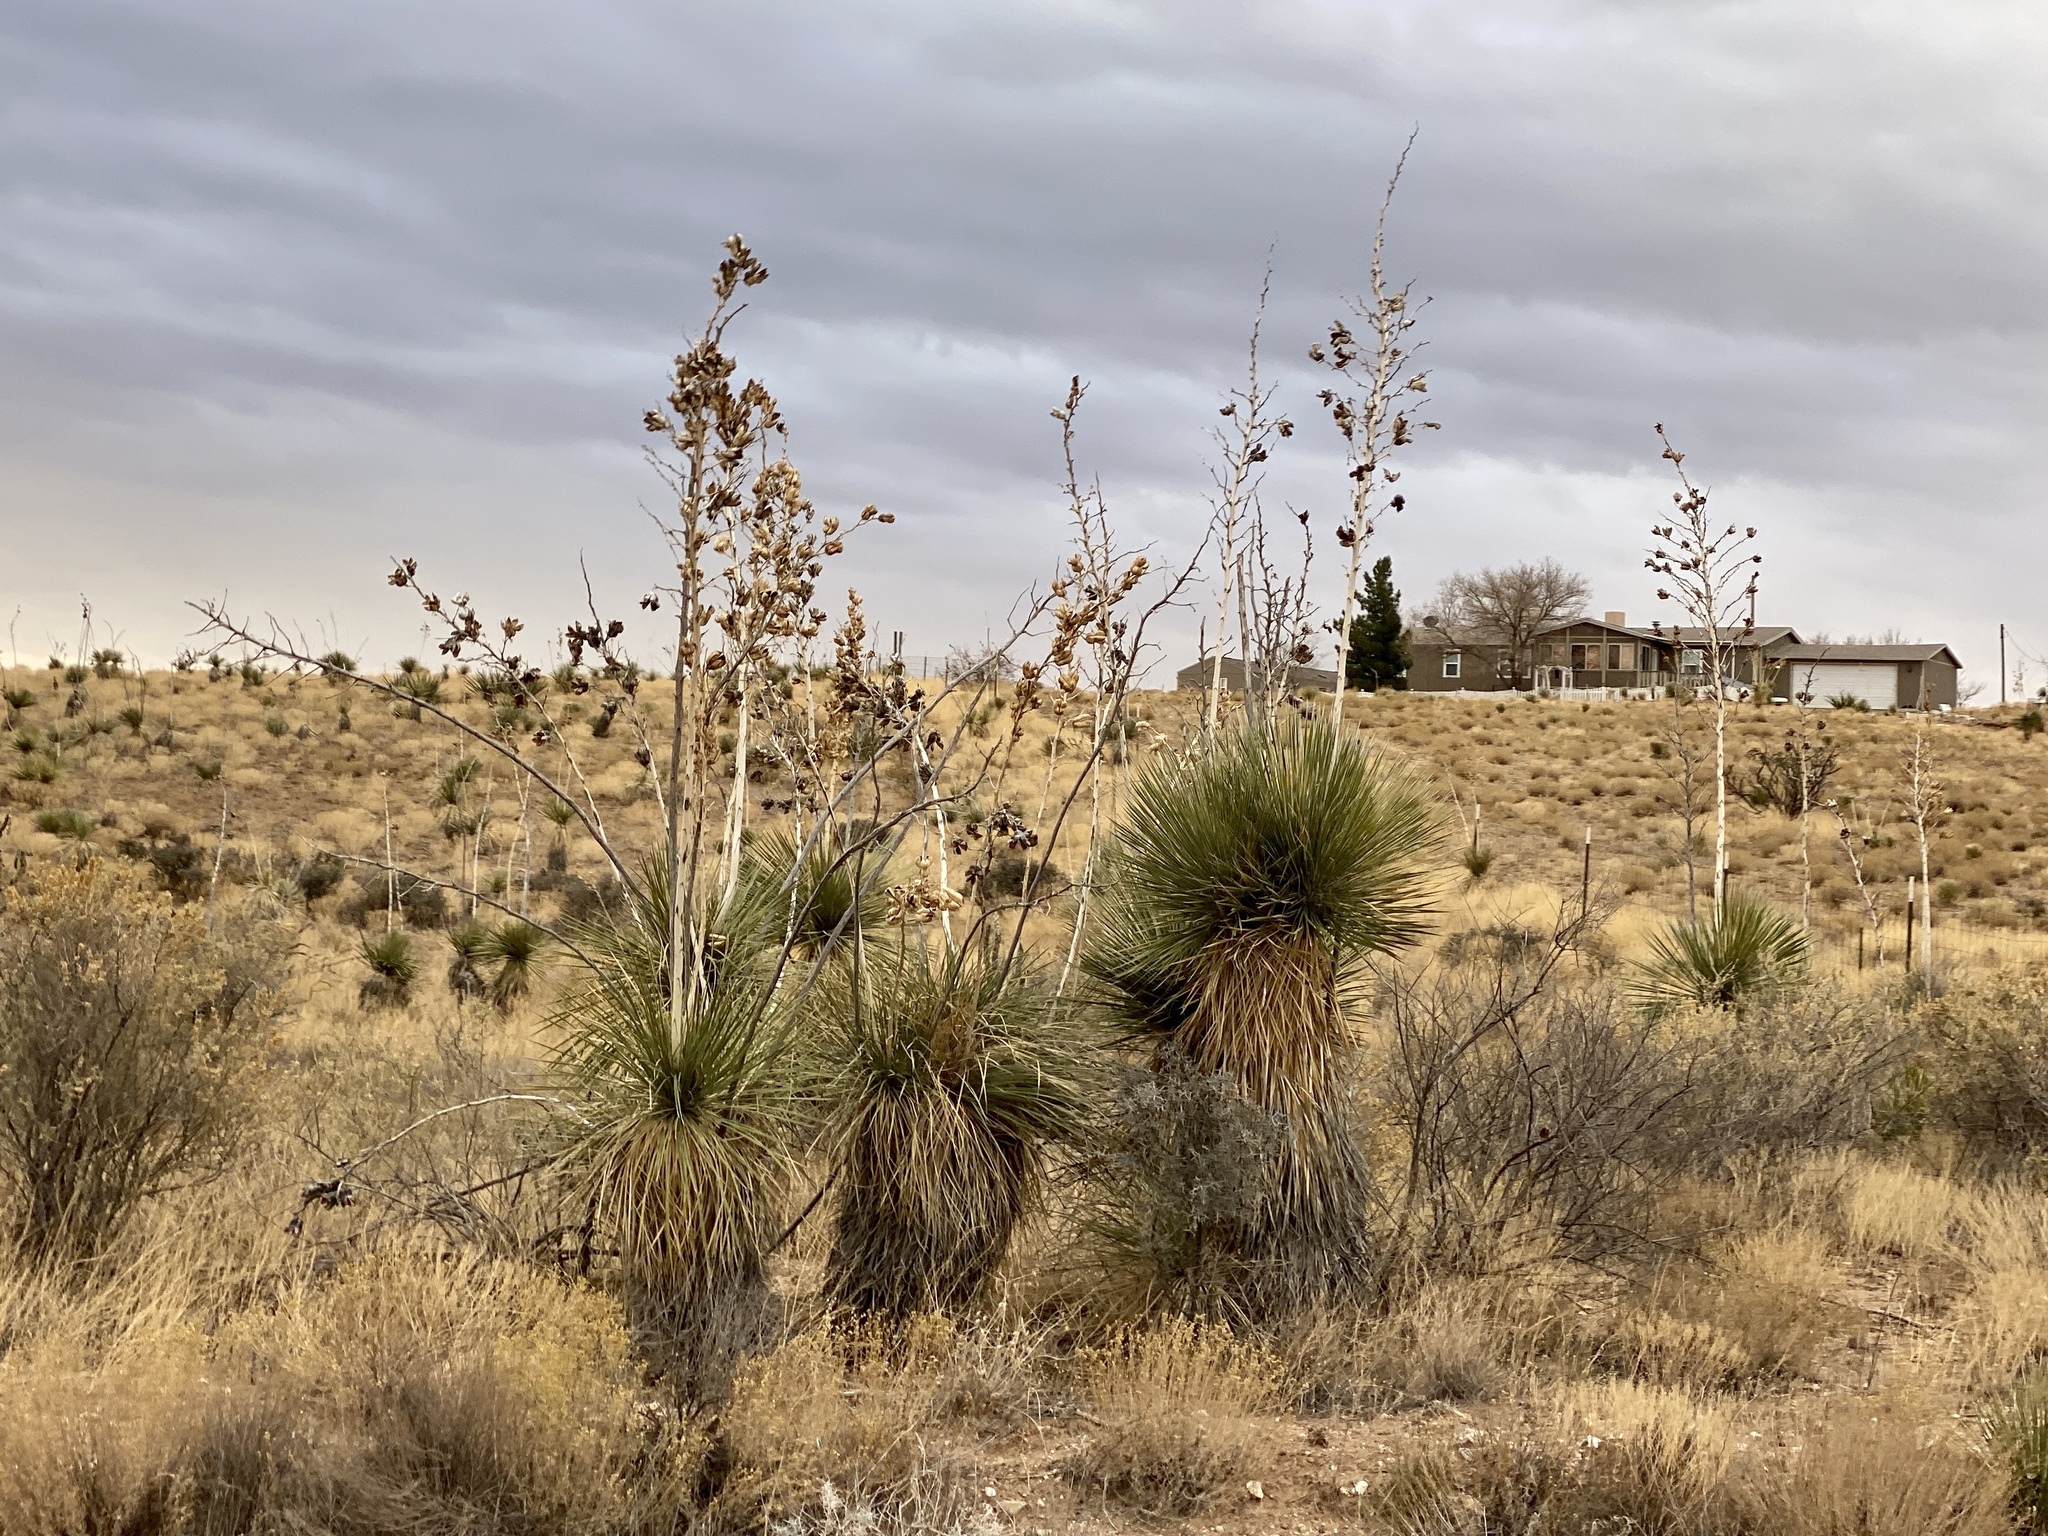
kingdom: Plantae
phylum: Tracheophyta
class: Liliopsida
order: Asparagales
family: Asparagaceae
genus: Yucca
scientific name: Yucca elata
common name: Palmella
